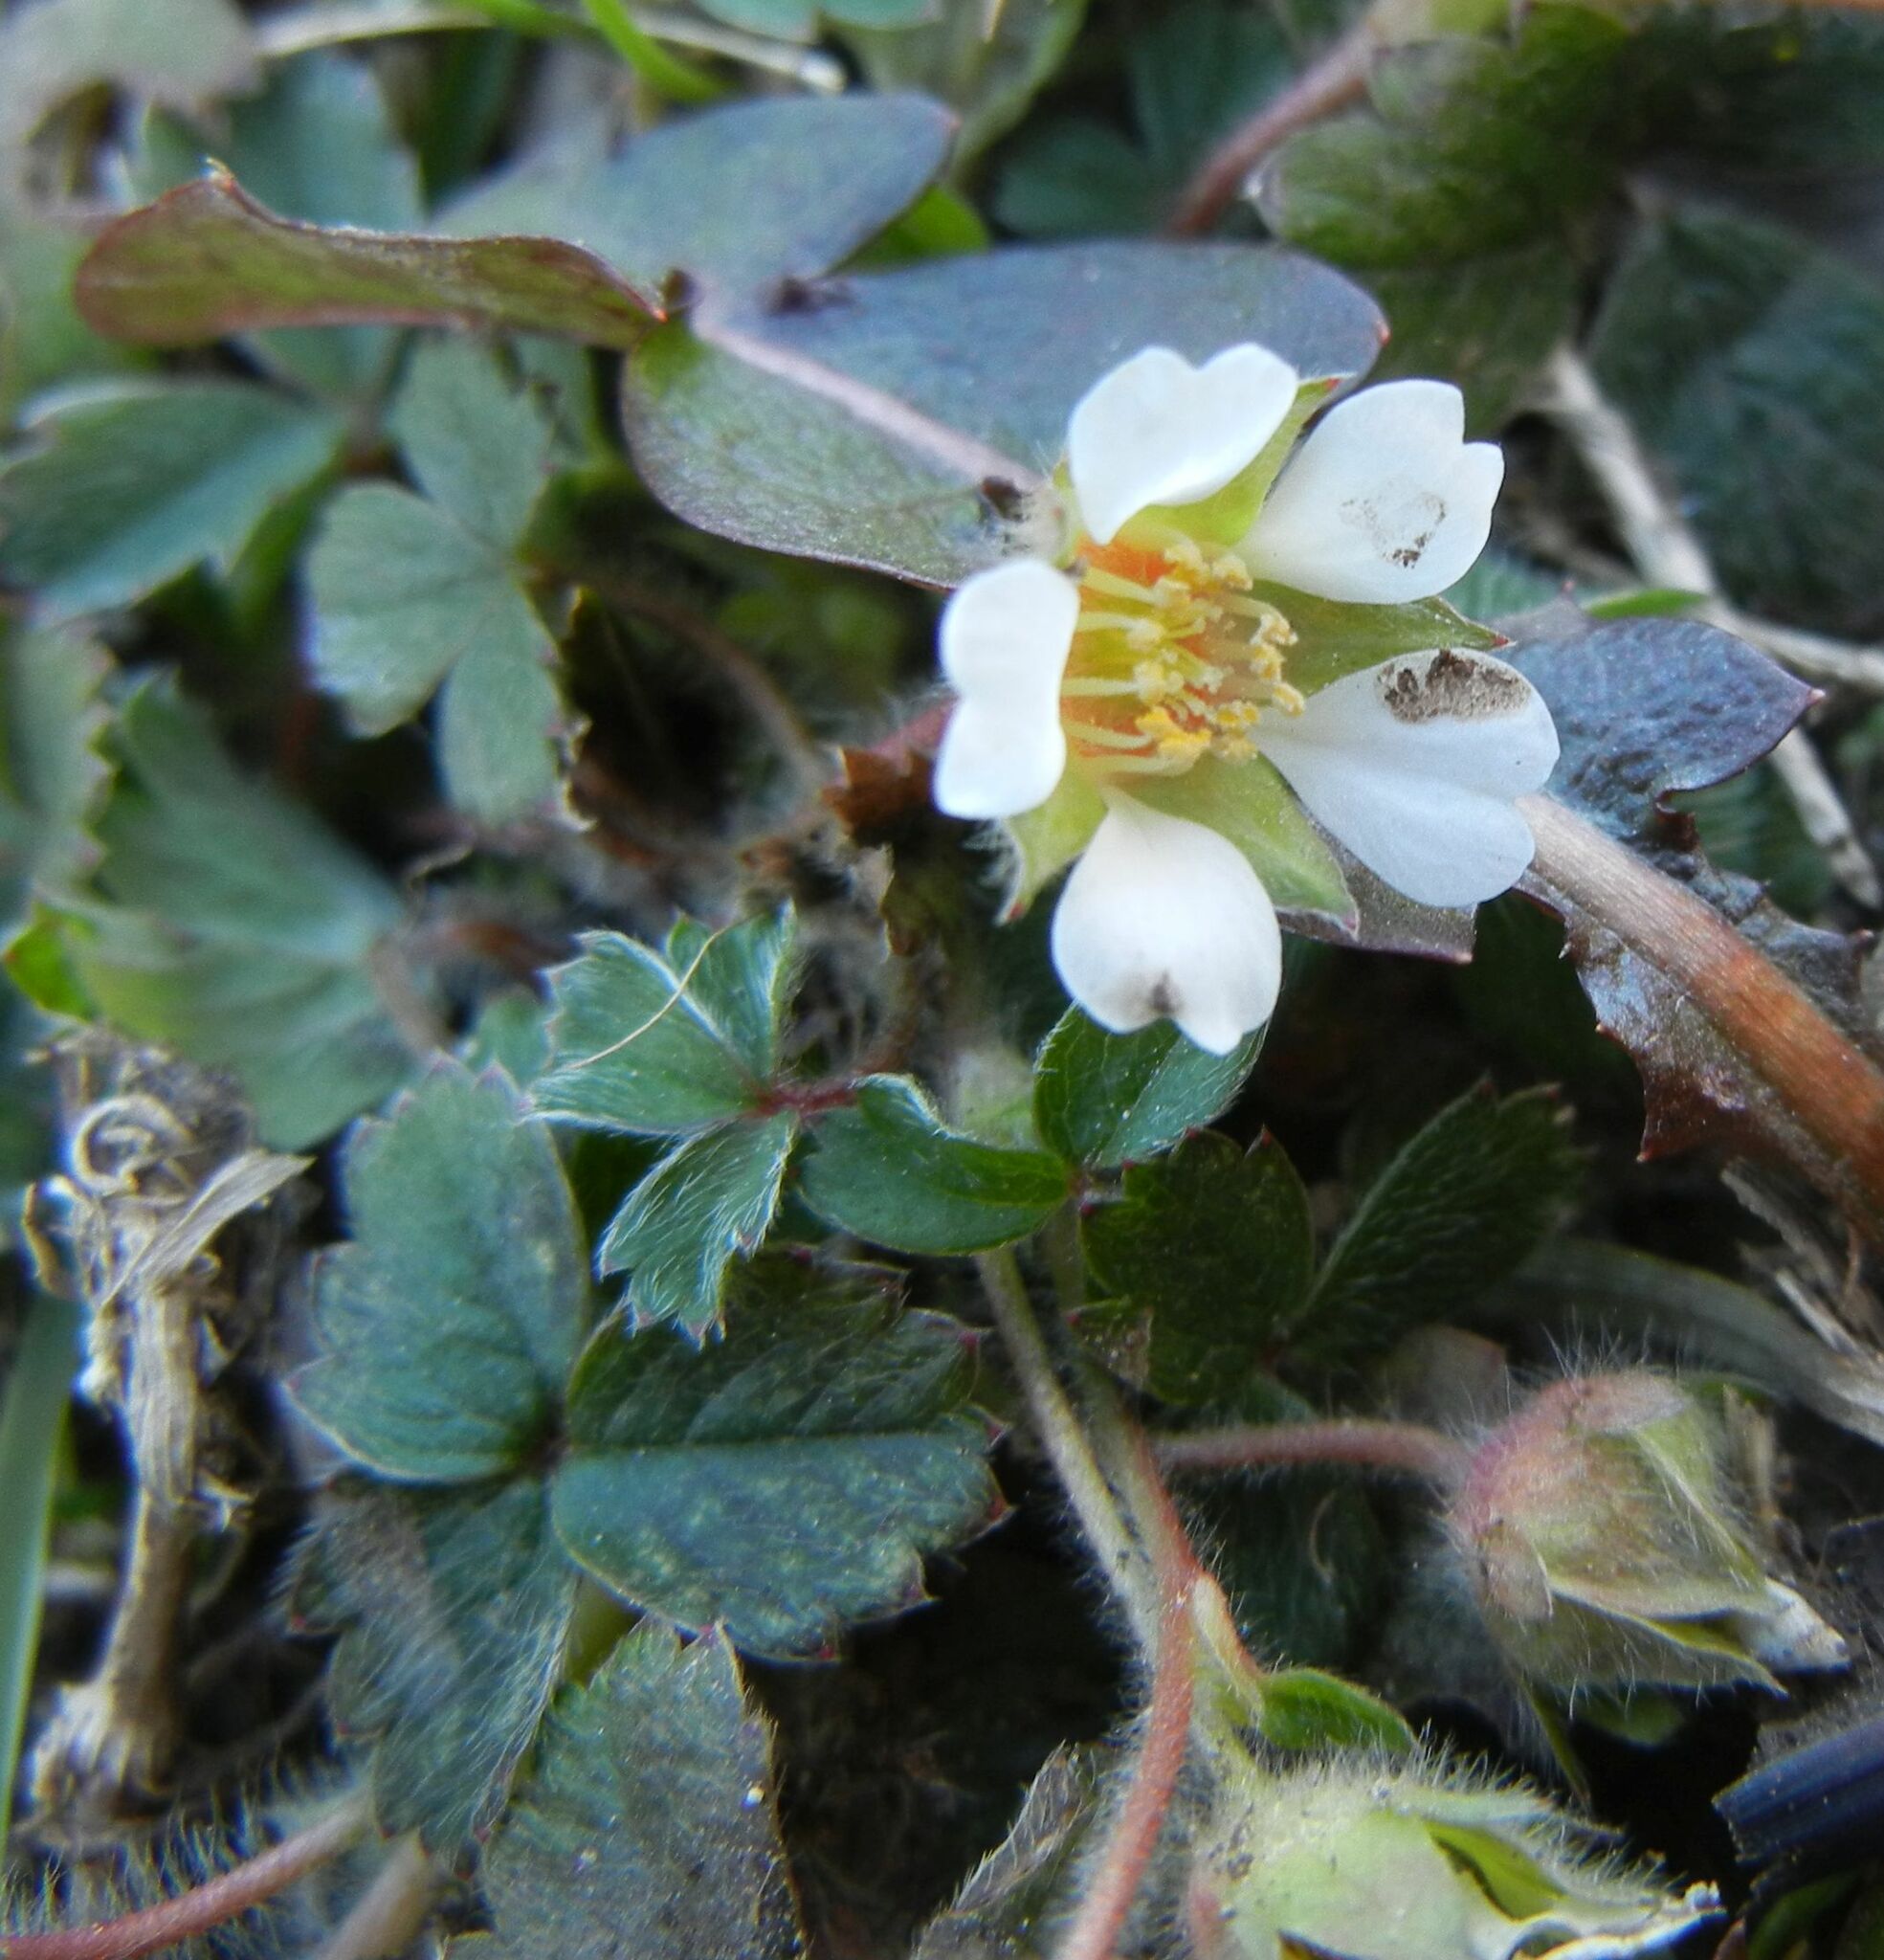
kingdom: Plantae
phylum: Tracheophyta
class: Magnoliopsida
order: Rosales
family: Rosaceae
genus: Potentilla
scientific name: Potentilla sterilis
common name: Barren strawberry
